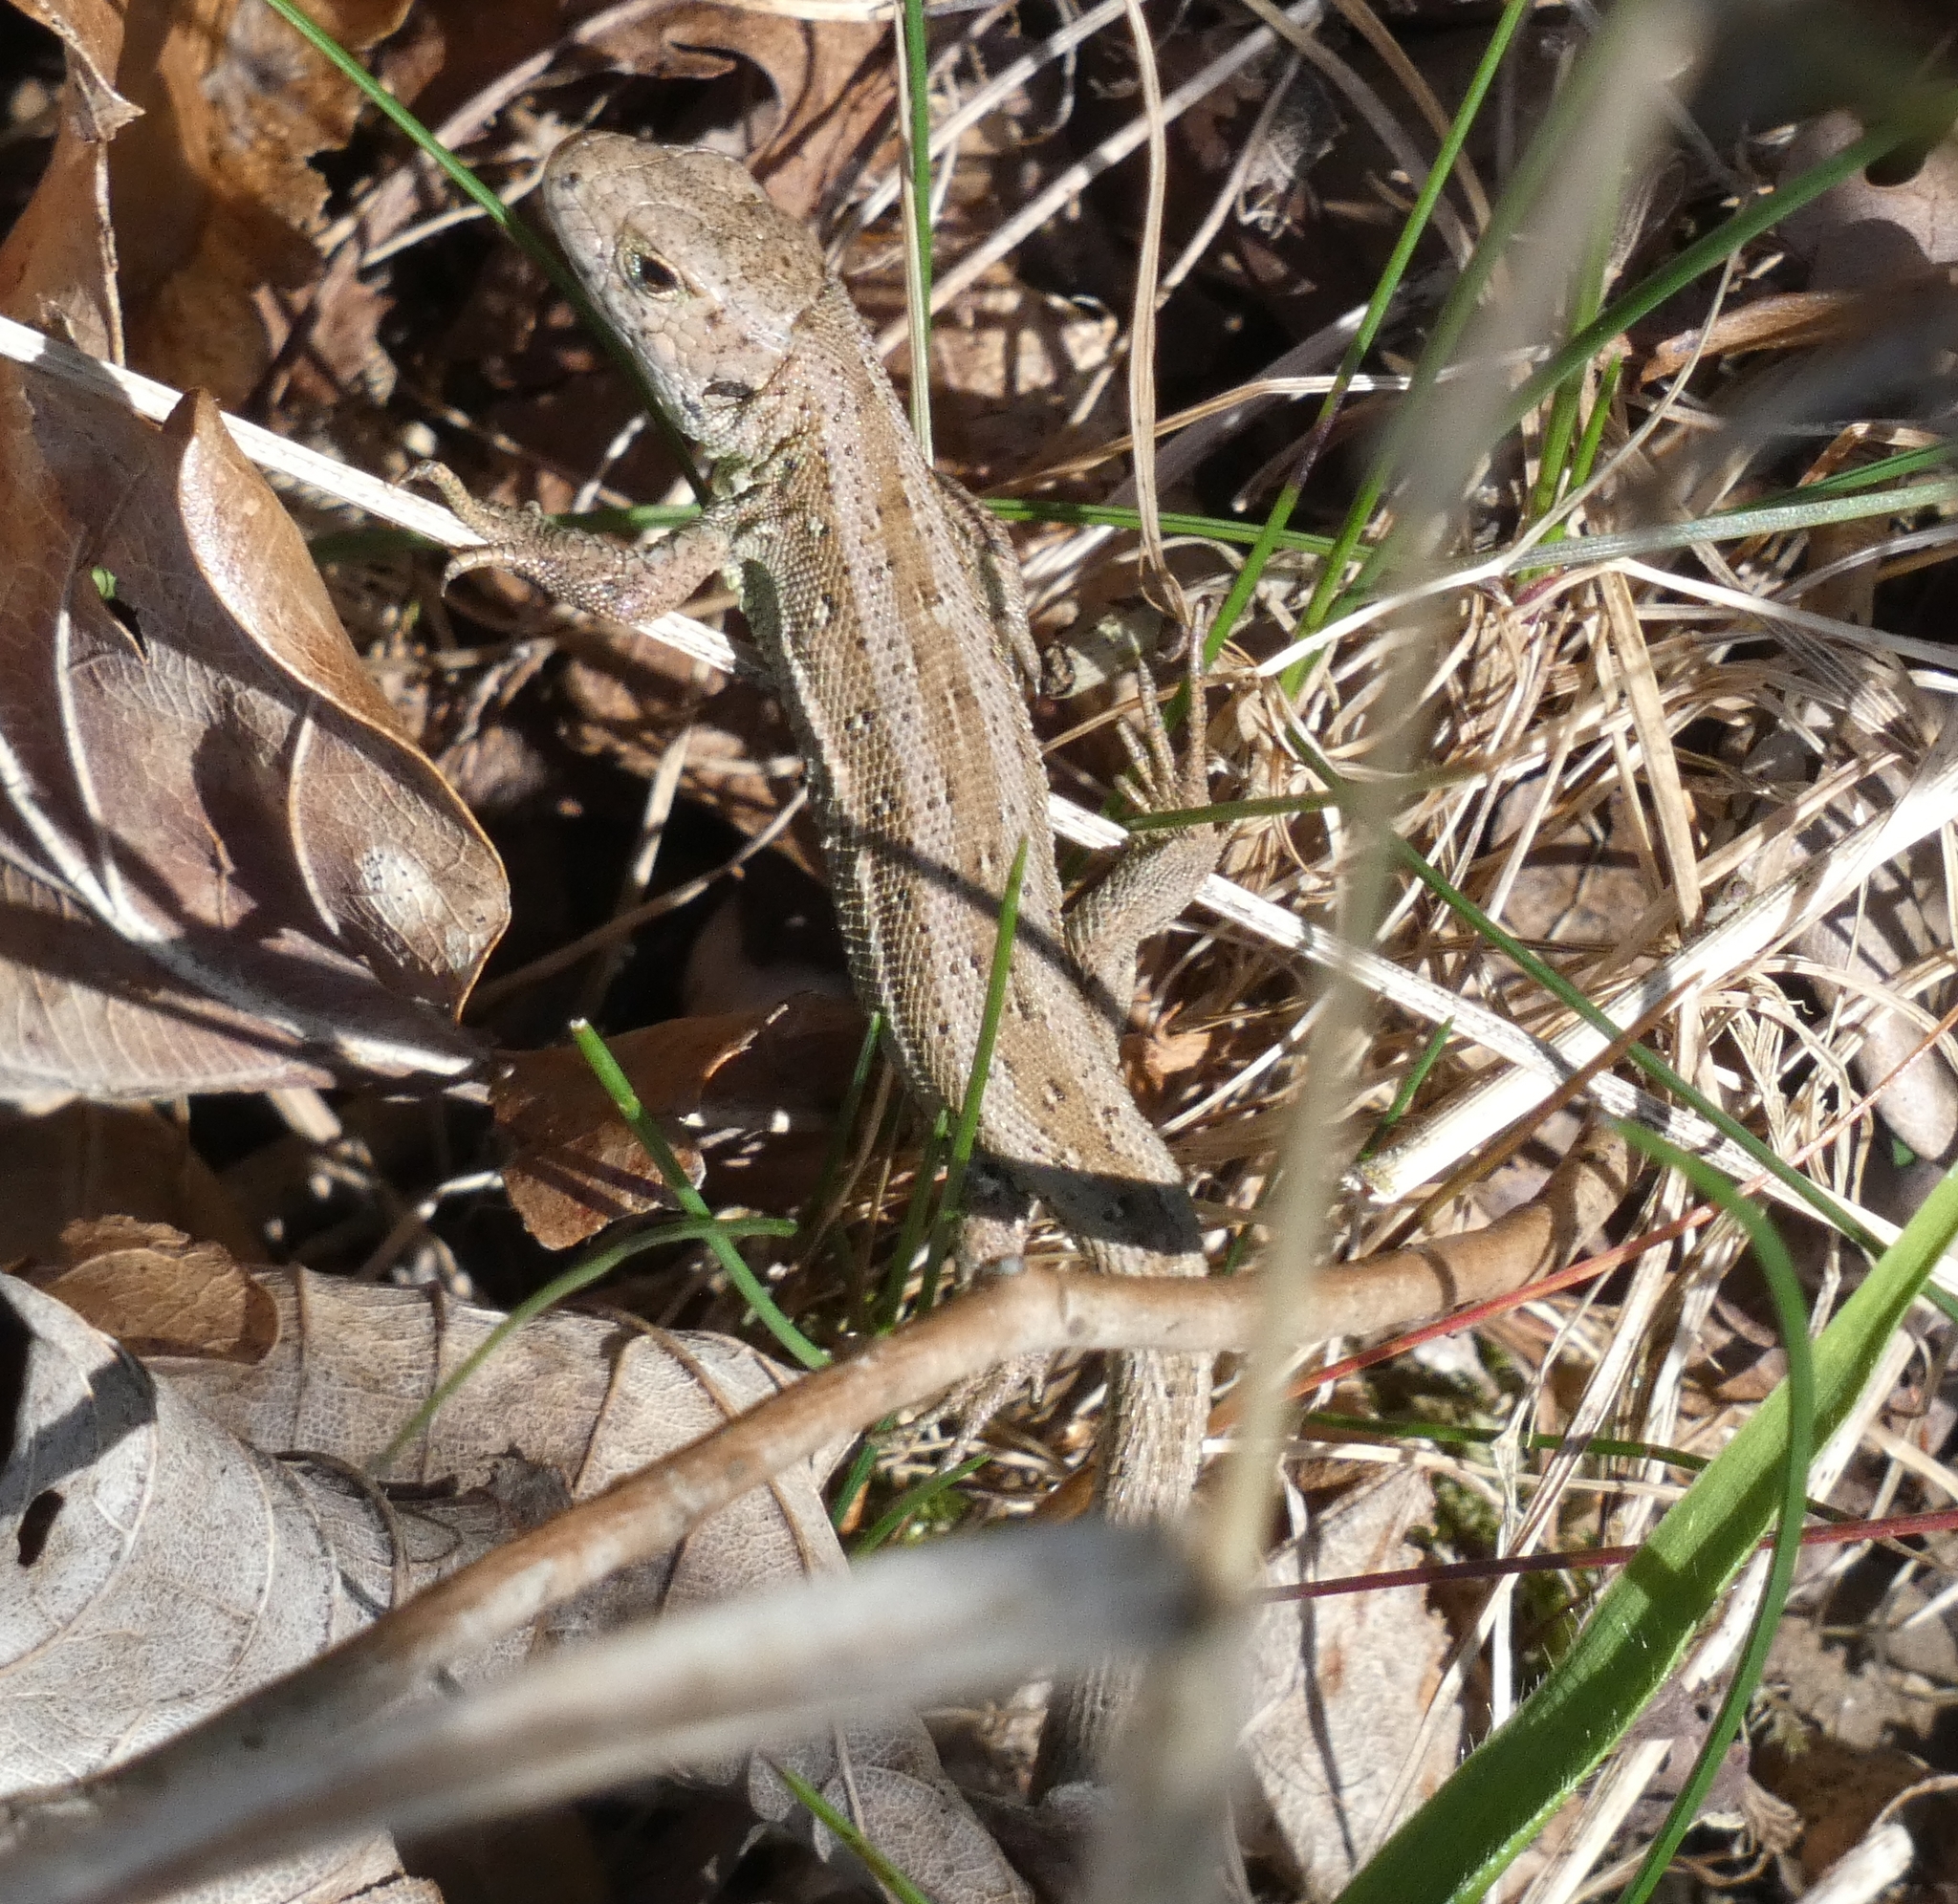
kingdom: Animalia
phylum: Chordata
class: Squamata
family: Lacertidae
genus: Lacerta
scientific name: Lacerta agilis
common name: Sand lizard
